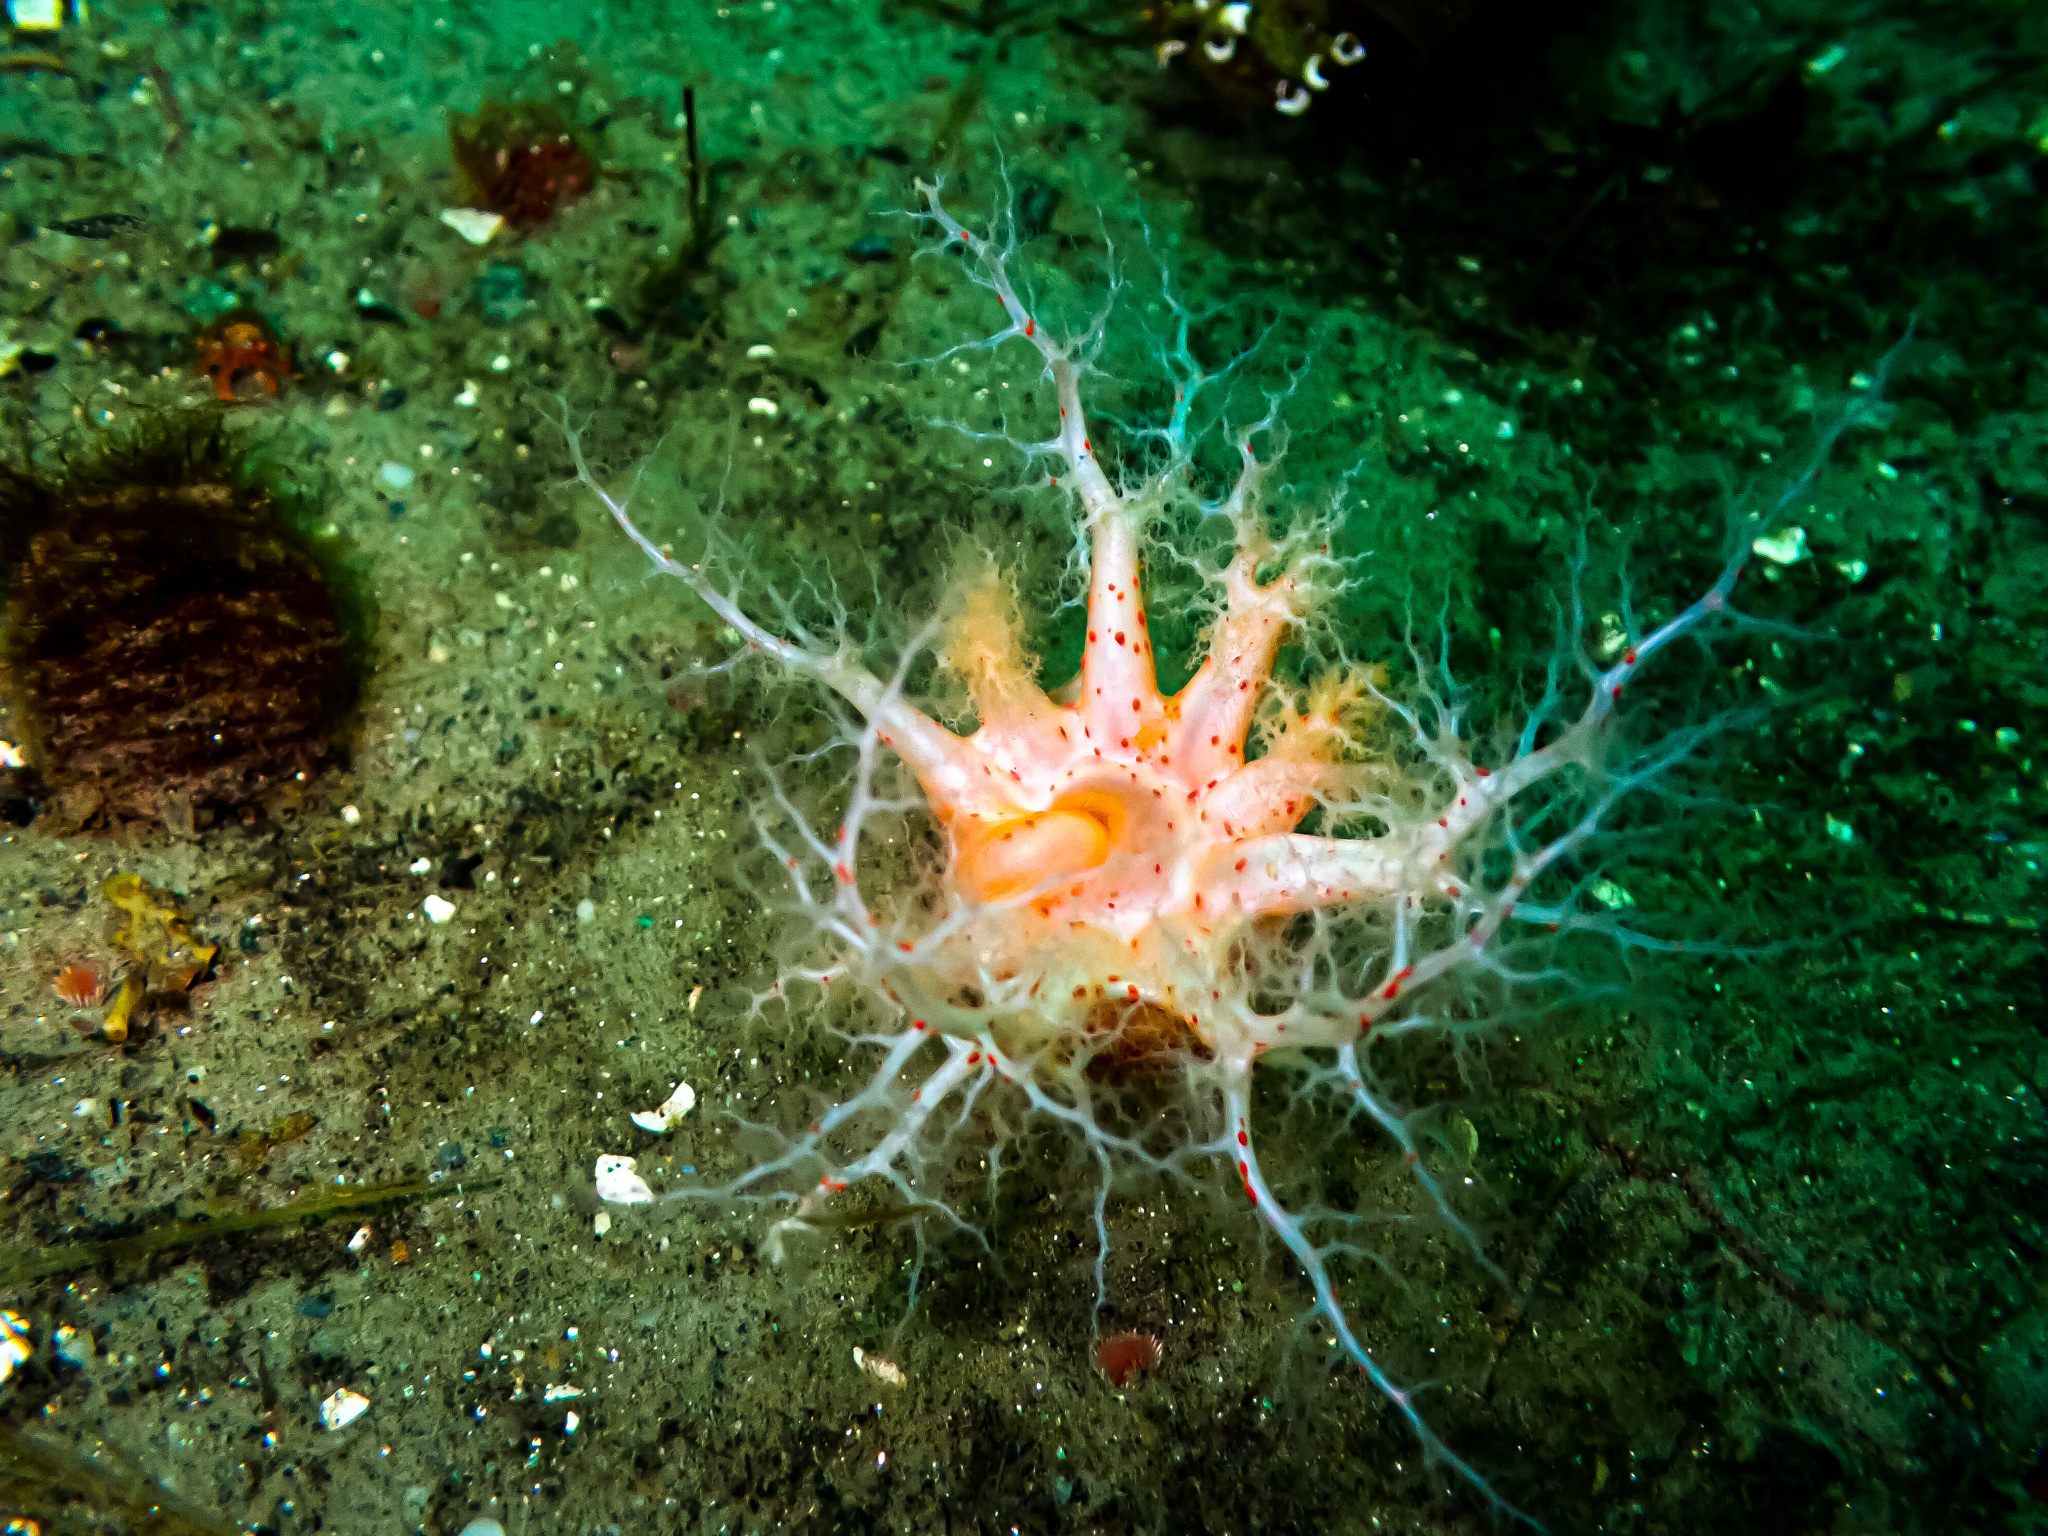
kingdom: Animalia
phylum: Echinodermata
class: Holothuroidea
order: Dendrochirotida
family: Psolidae
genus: Psolus
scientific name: Psolus phantapus
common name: Brown psolus
